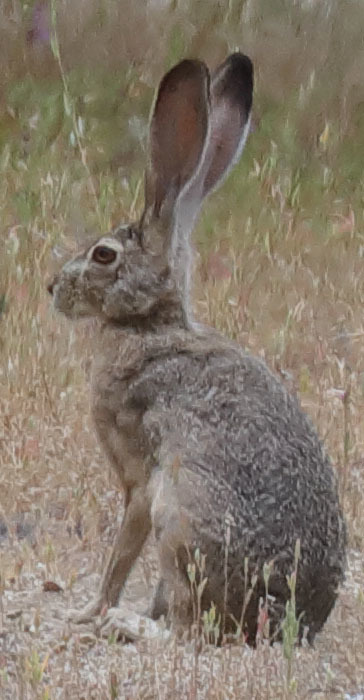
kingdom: Animalia
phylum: Chordata
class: Mammalia
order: Lagomorpha
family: Leporidae
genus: Lepus
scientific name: Lepus californicus
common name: Black-tailed jackrabbit
